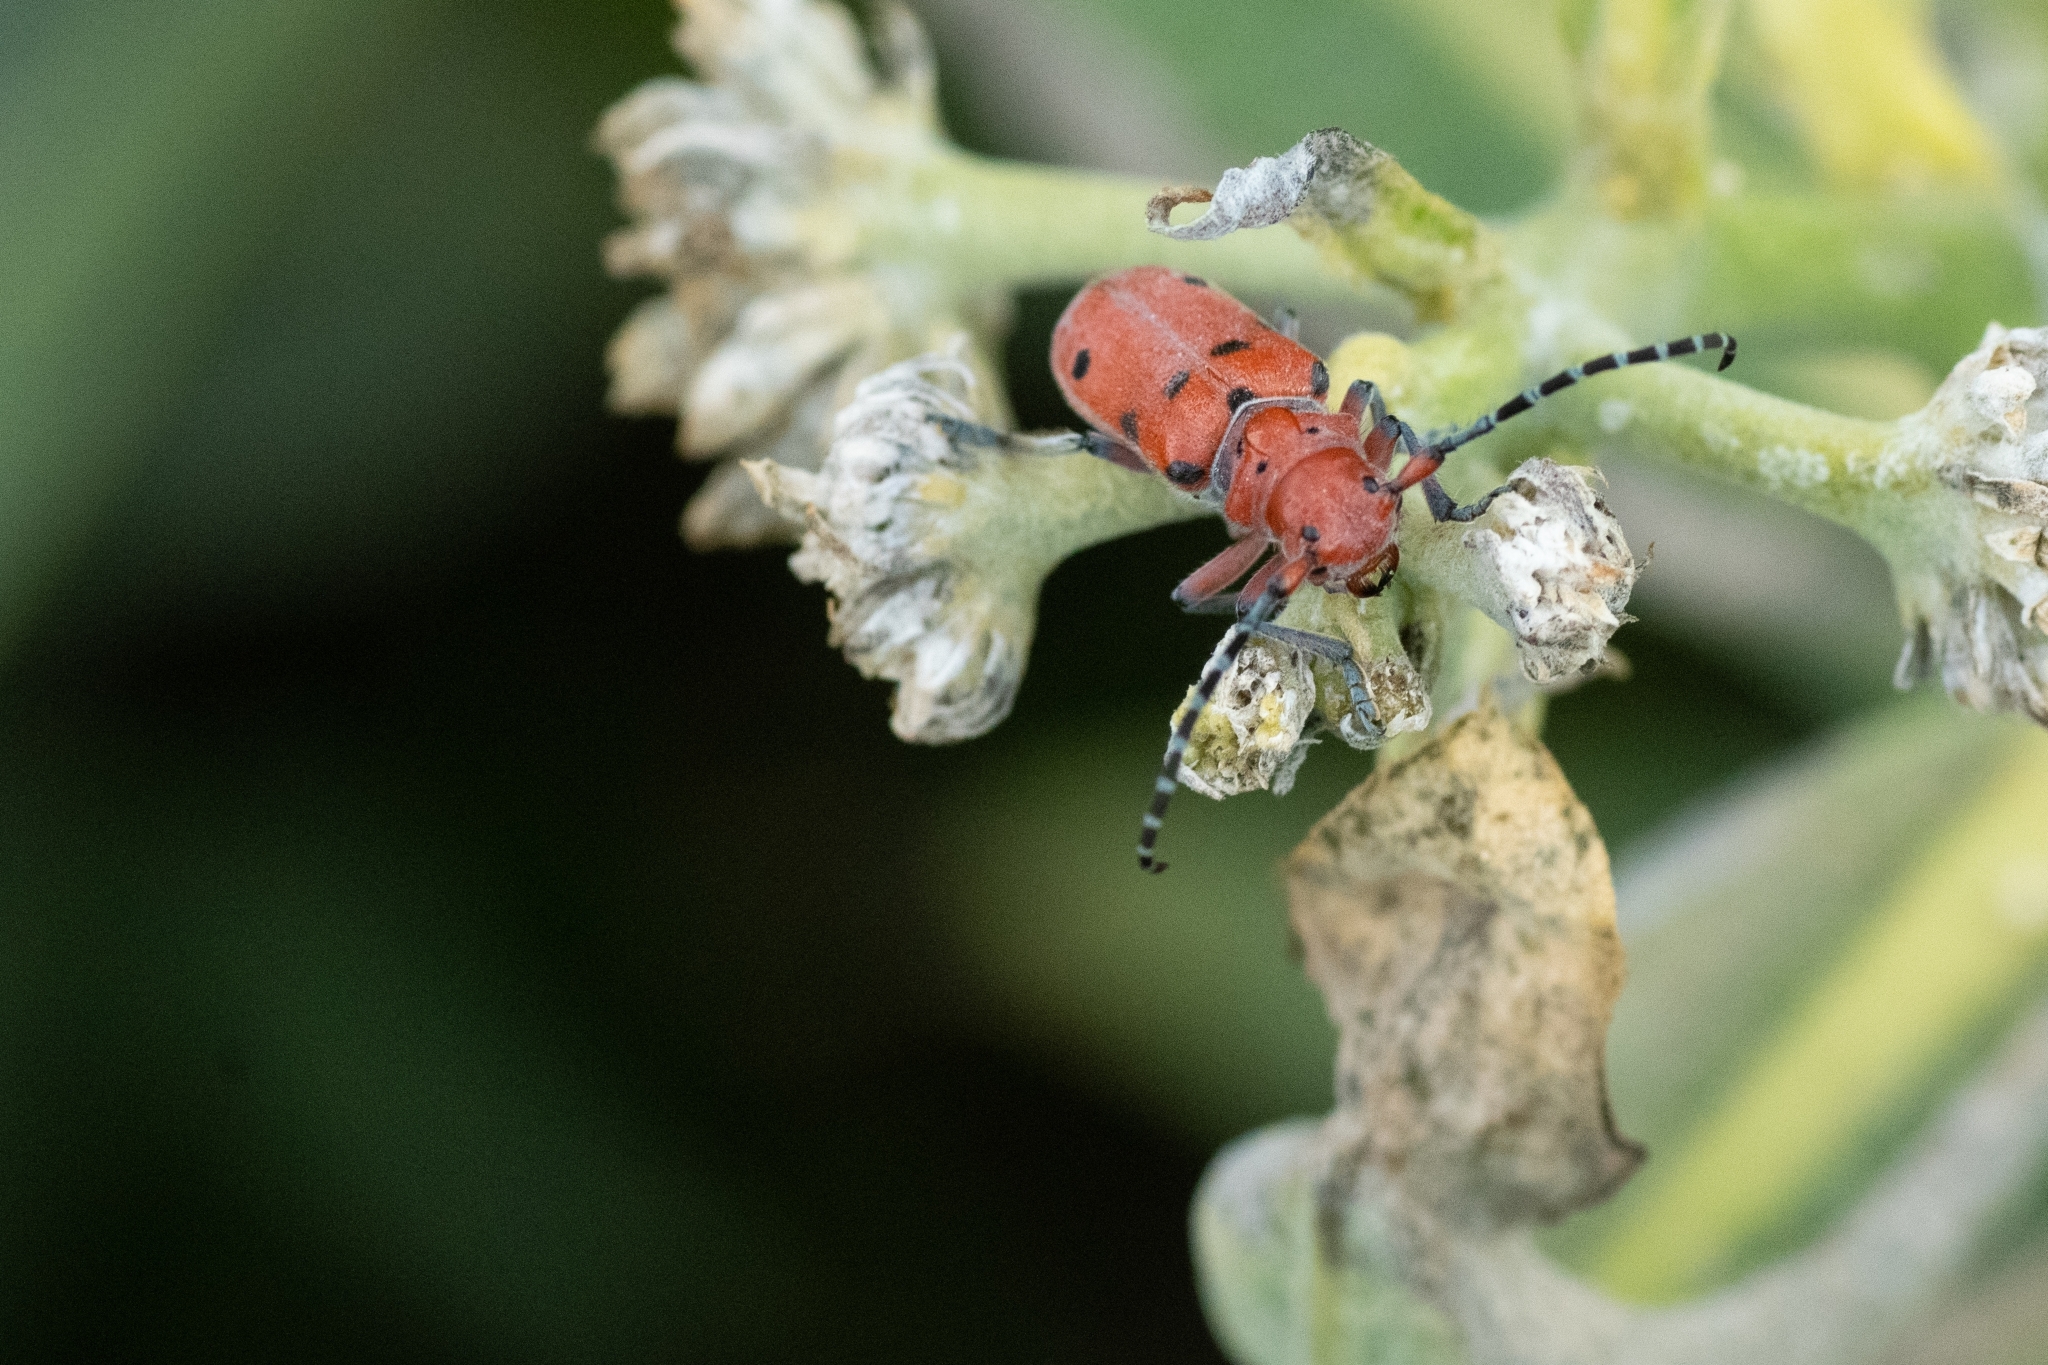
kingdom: Animalia
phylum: Arthropoda
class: Insecta
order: Coleoptera
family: Cerambycidae
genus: Tetraopes
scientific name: Tetraopes femoratus
